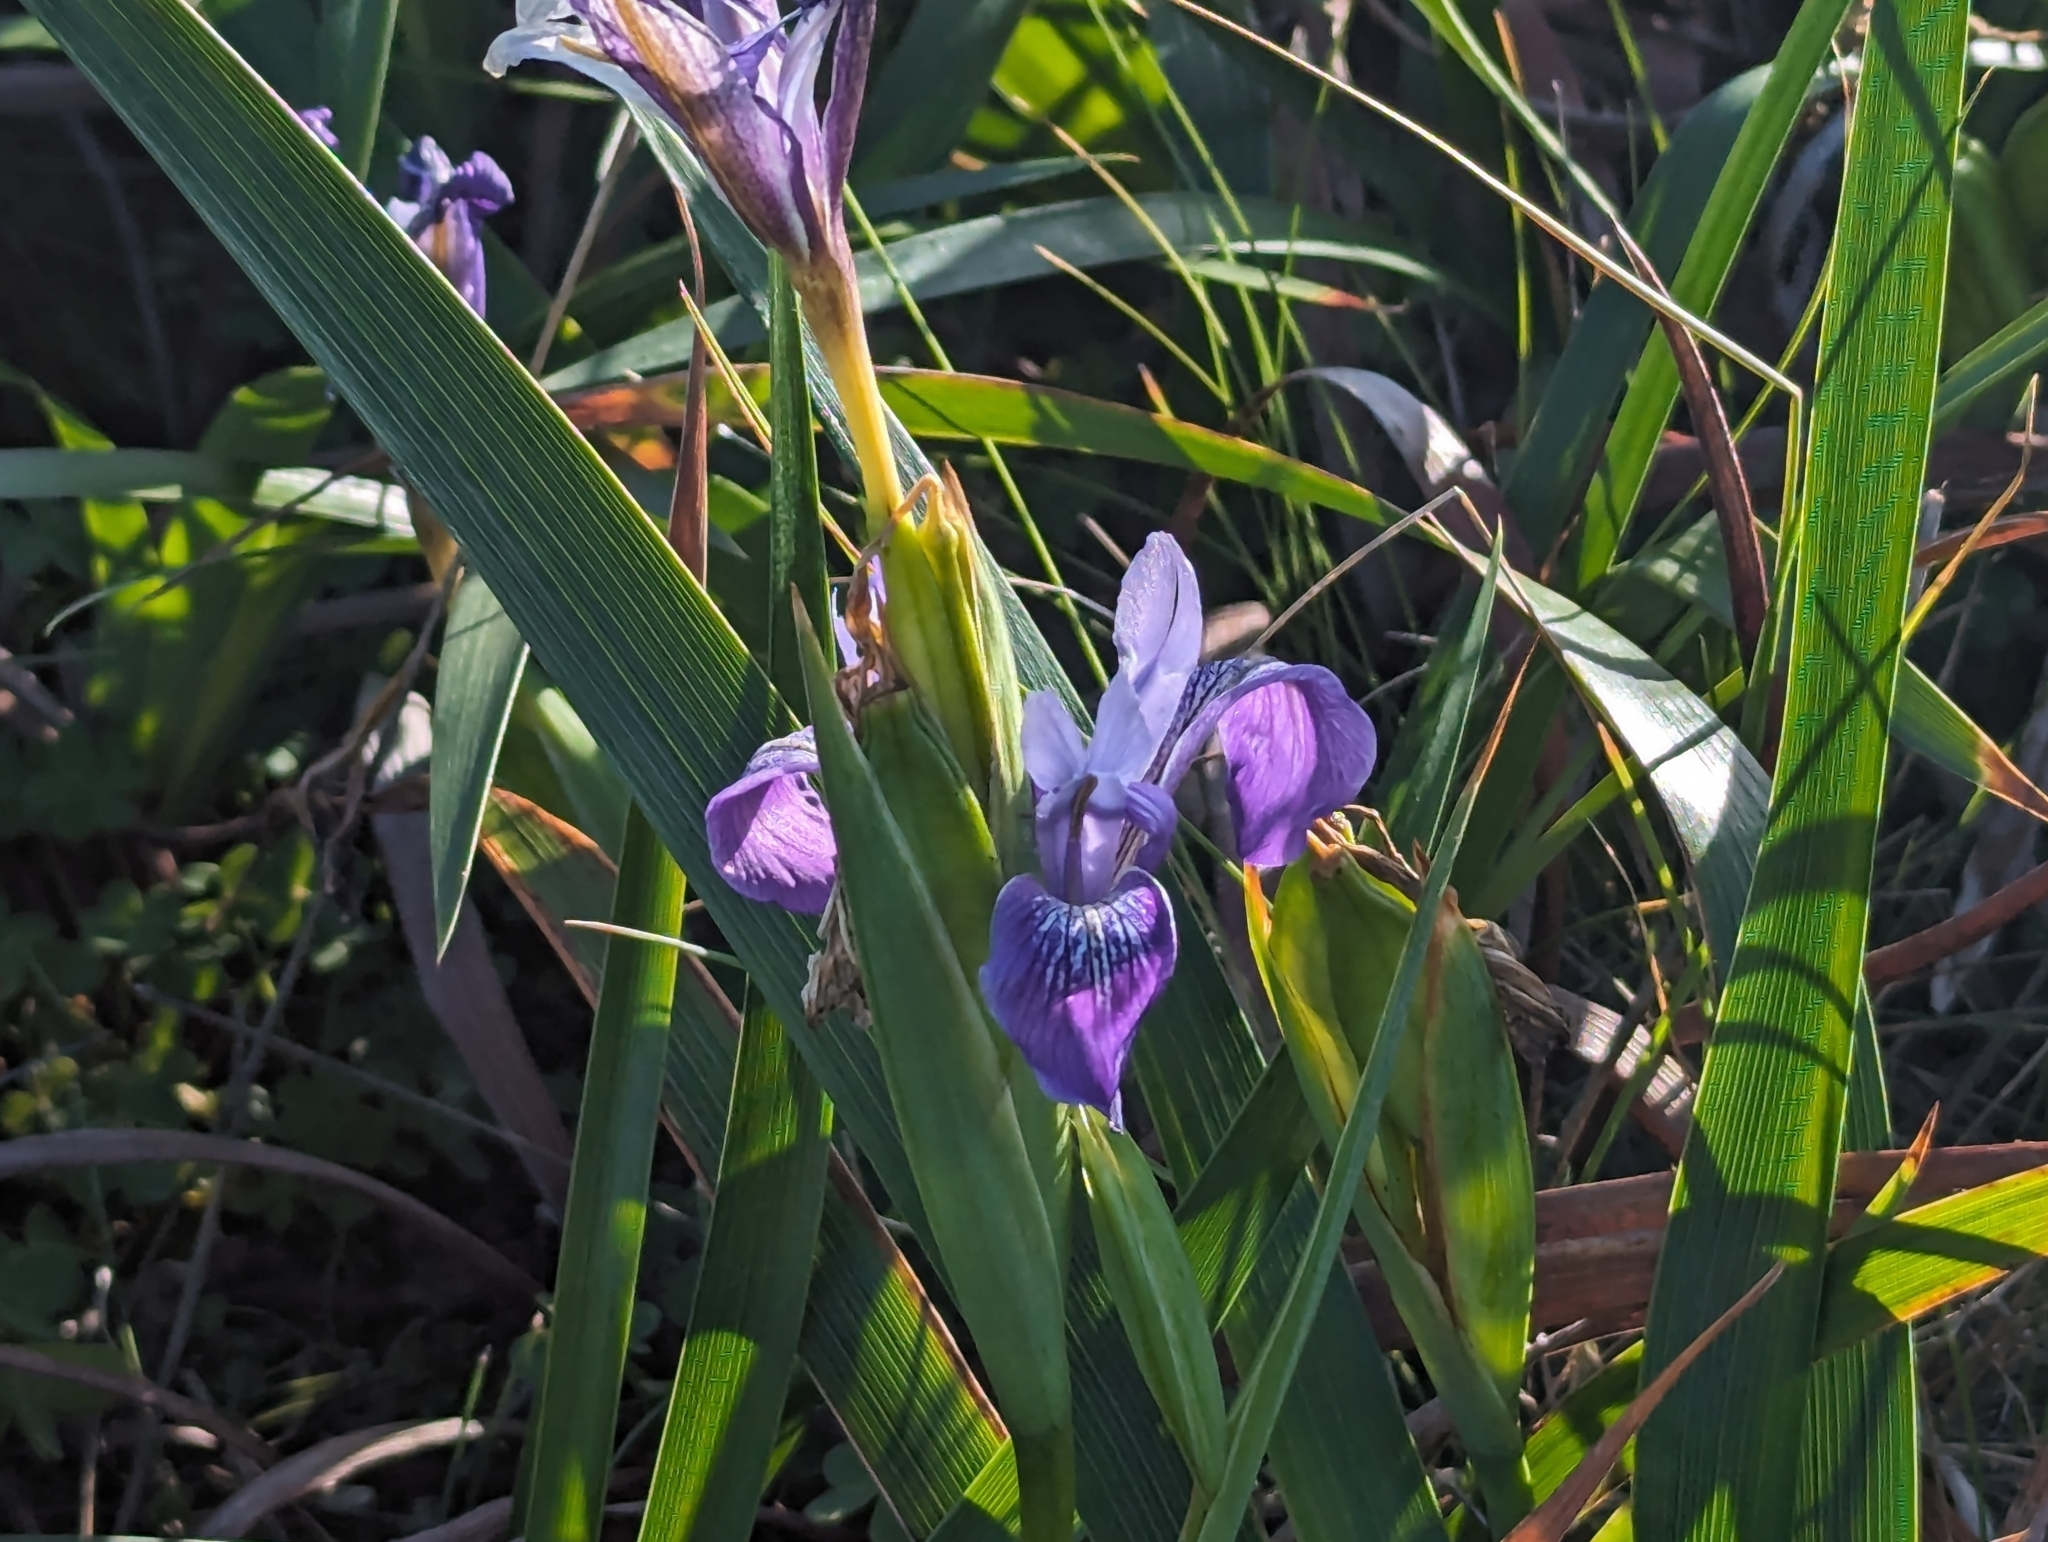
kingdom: Plantae
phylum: Tracheophyta
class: Liliopsida
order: Asparagales
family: Iridaceae
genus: Iris
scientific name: Iris douglasiana
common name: Marin iris
